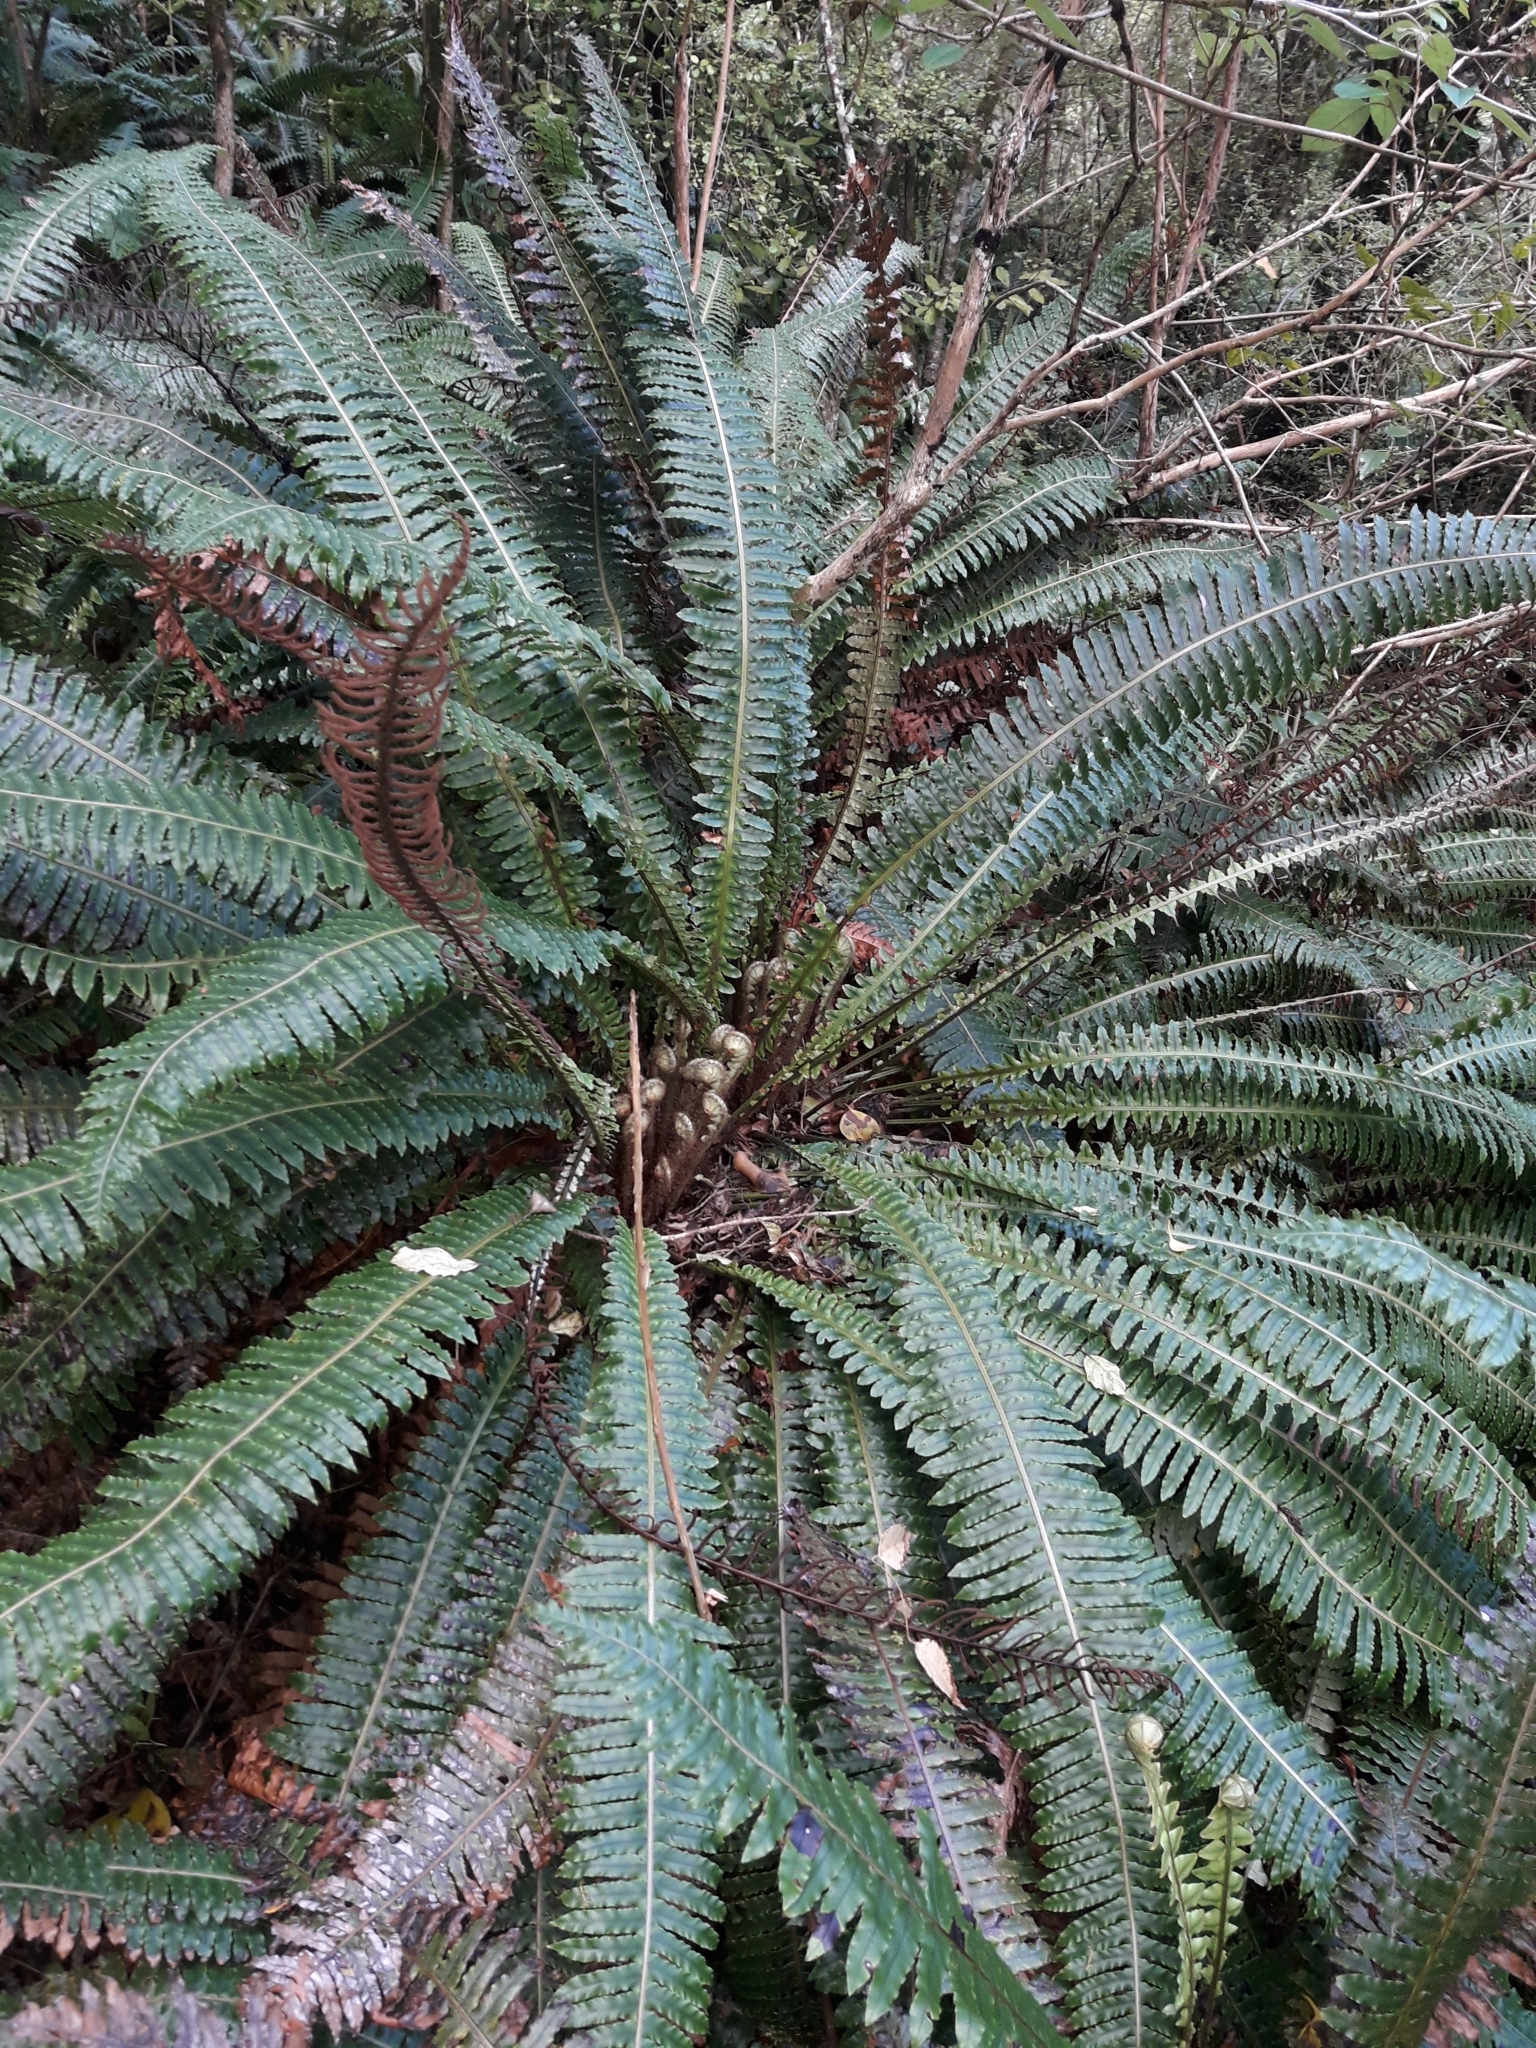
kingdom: Plantae
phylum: Tracheophyta
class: Polypodiopsida
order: Polypodiales
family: Blechnaceae
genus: Lomaria
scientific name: Lomaria discolor
